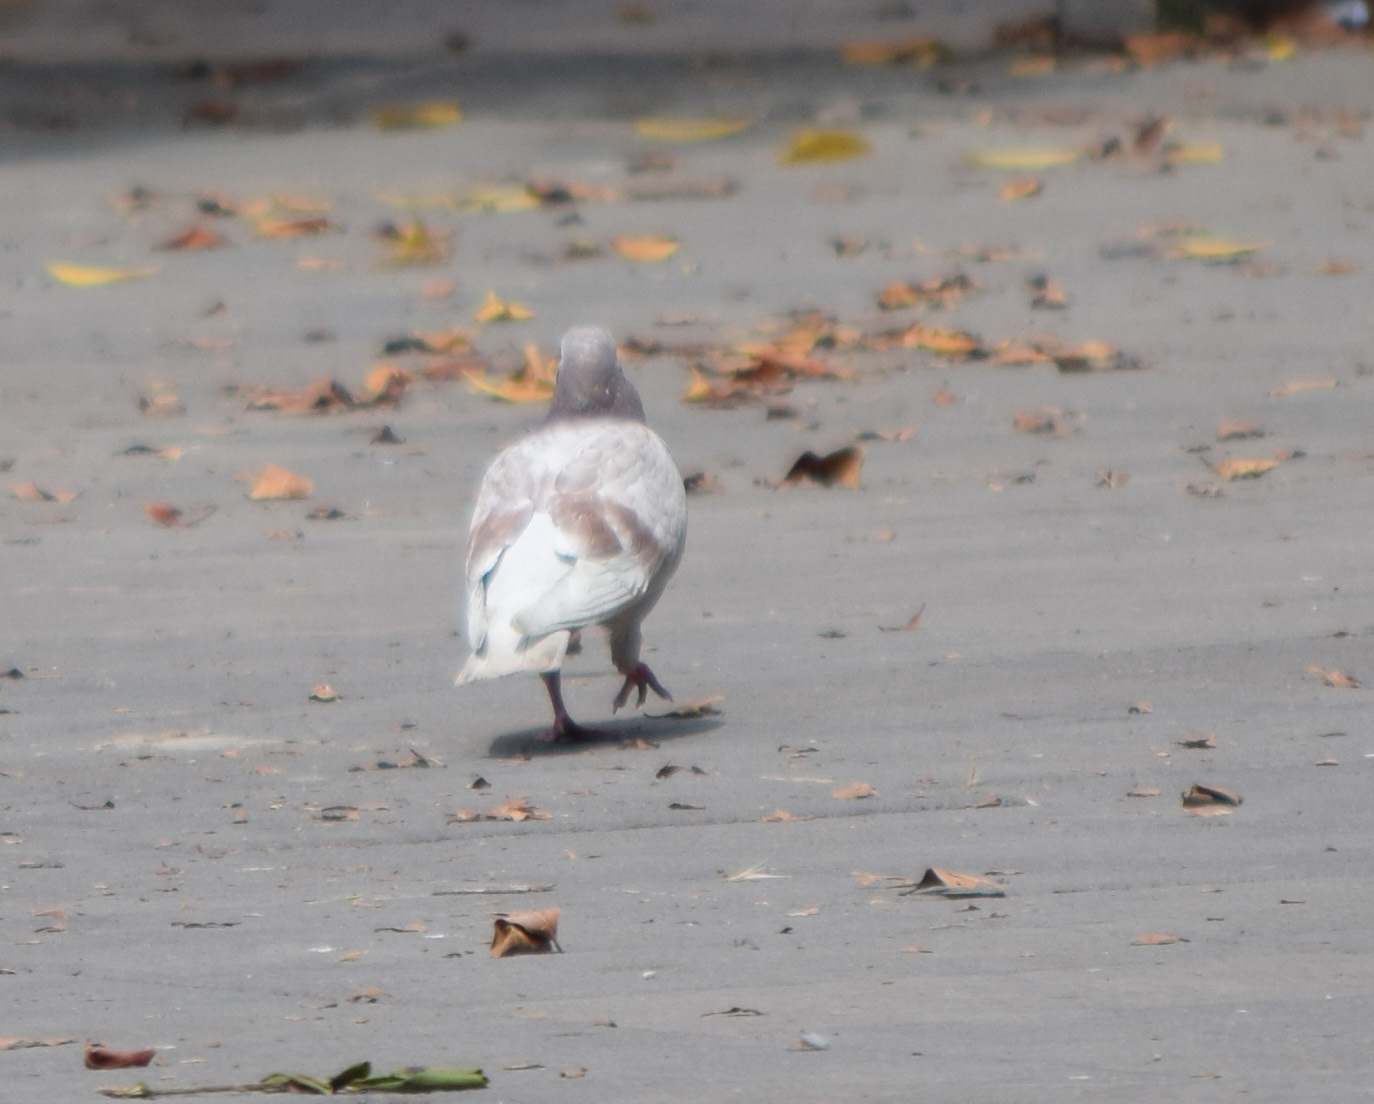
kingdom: Animalia
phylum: Chordata
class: Aves
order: Columbiformes
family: Columbidae
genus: Columba
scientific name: Columba livia
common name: Rock pigeon
